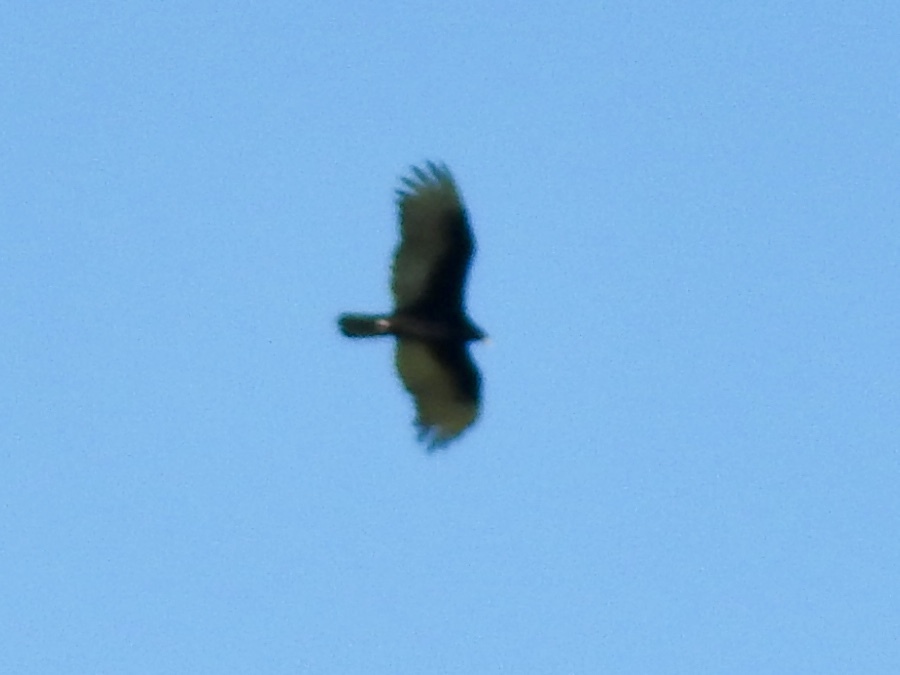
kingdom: Animalia
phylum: Chordata
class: Aves
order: Accipitriformes
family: Cathartidae
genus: Cathartes
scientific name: Cathartes aura
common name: Turkey vulture
